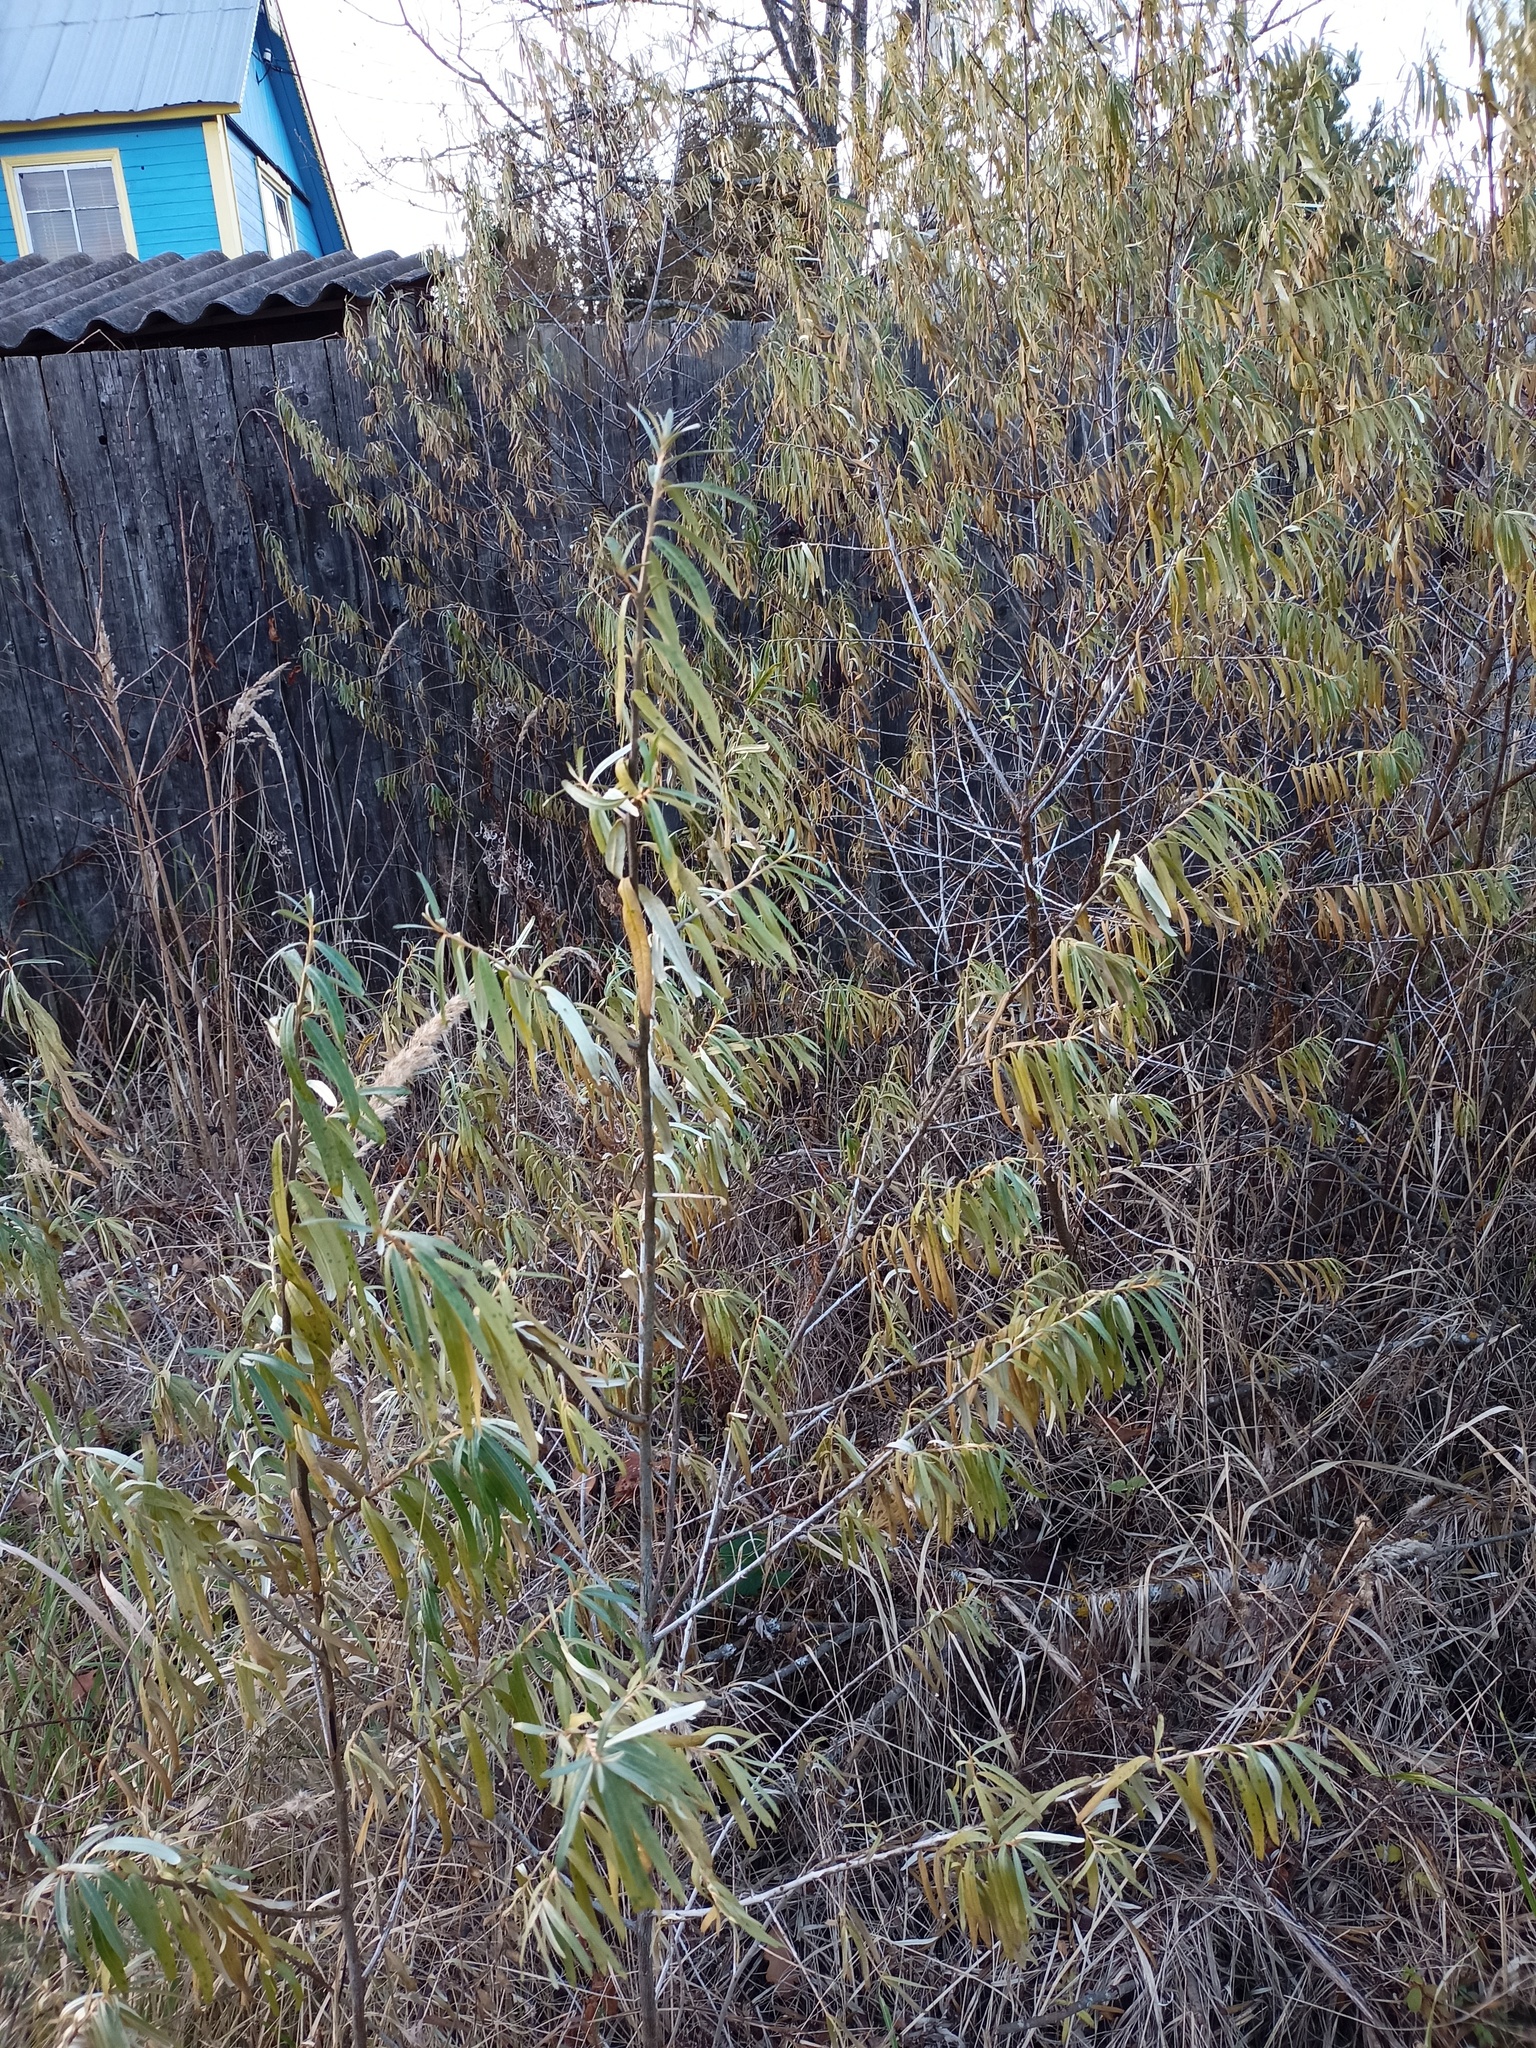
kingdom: Plantae
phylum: Tracheophyta
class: Magnoliopsida
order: Rosales
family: Elaeagnaceae
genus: Hippophae
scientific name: Hippophae rhamnoides
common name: Sea-buckthorn
